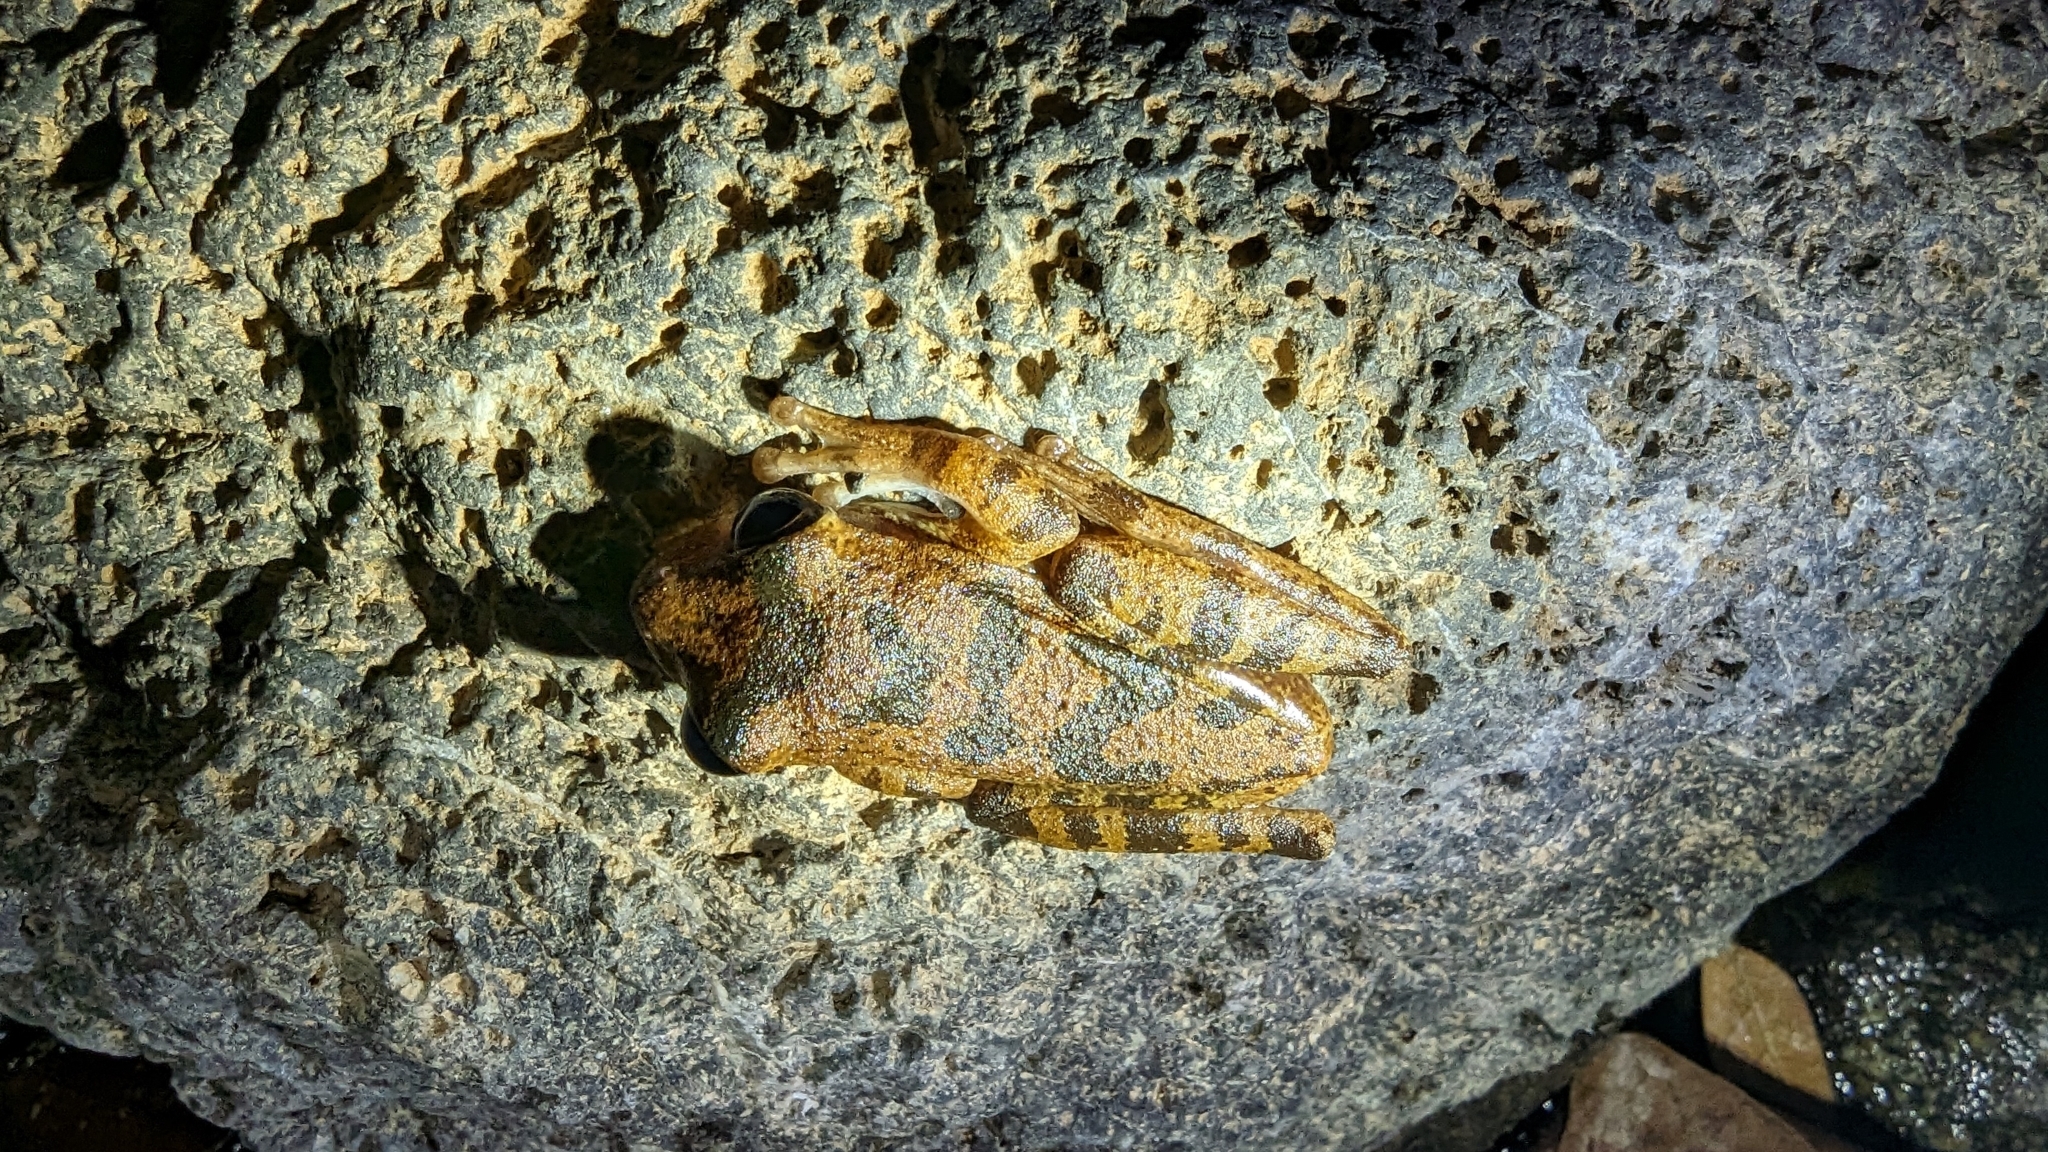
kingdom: Animalia
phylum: Chordata
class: Amphibia
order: Anura
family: Hylidae
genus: Smilisca
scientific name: Smilisca sordida
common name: Veragua cross-banded treefrog
